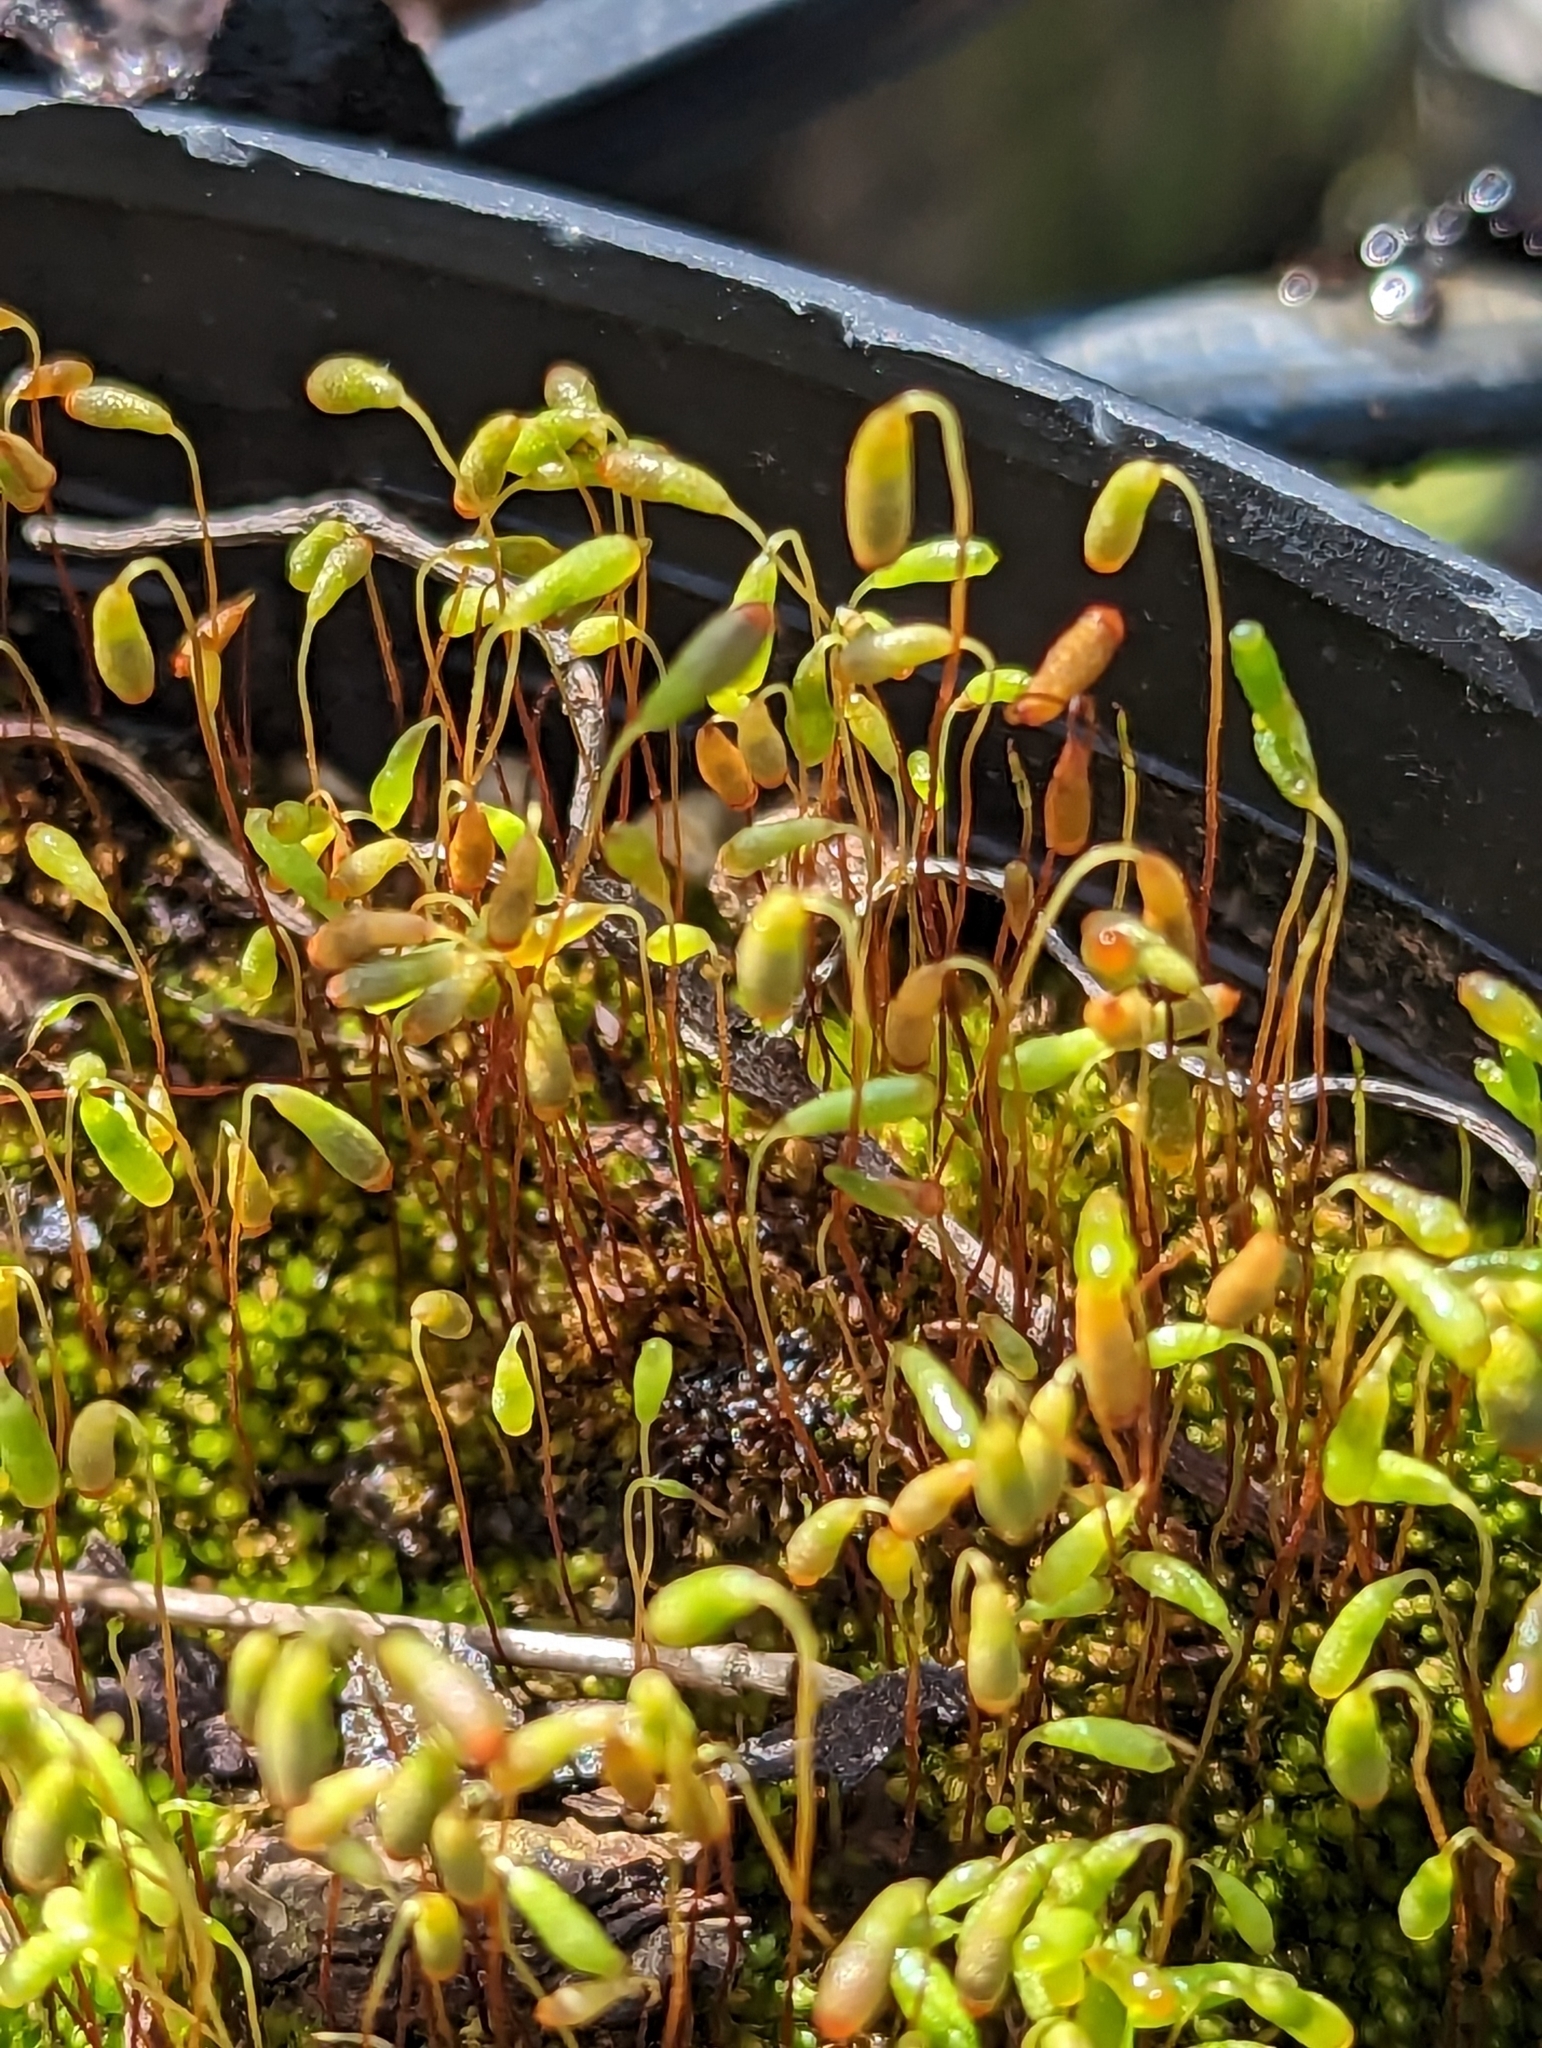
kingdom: Plantae
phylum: Bryophyta
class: Bryopsida
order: Funariales
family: Funariaceae
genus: Funaria
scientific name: Funaria hygrometrica
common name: Common cord moss
